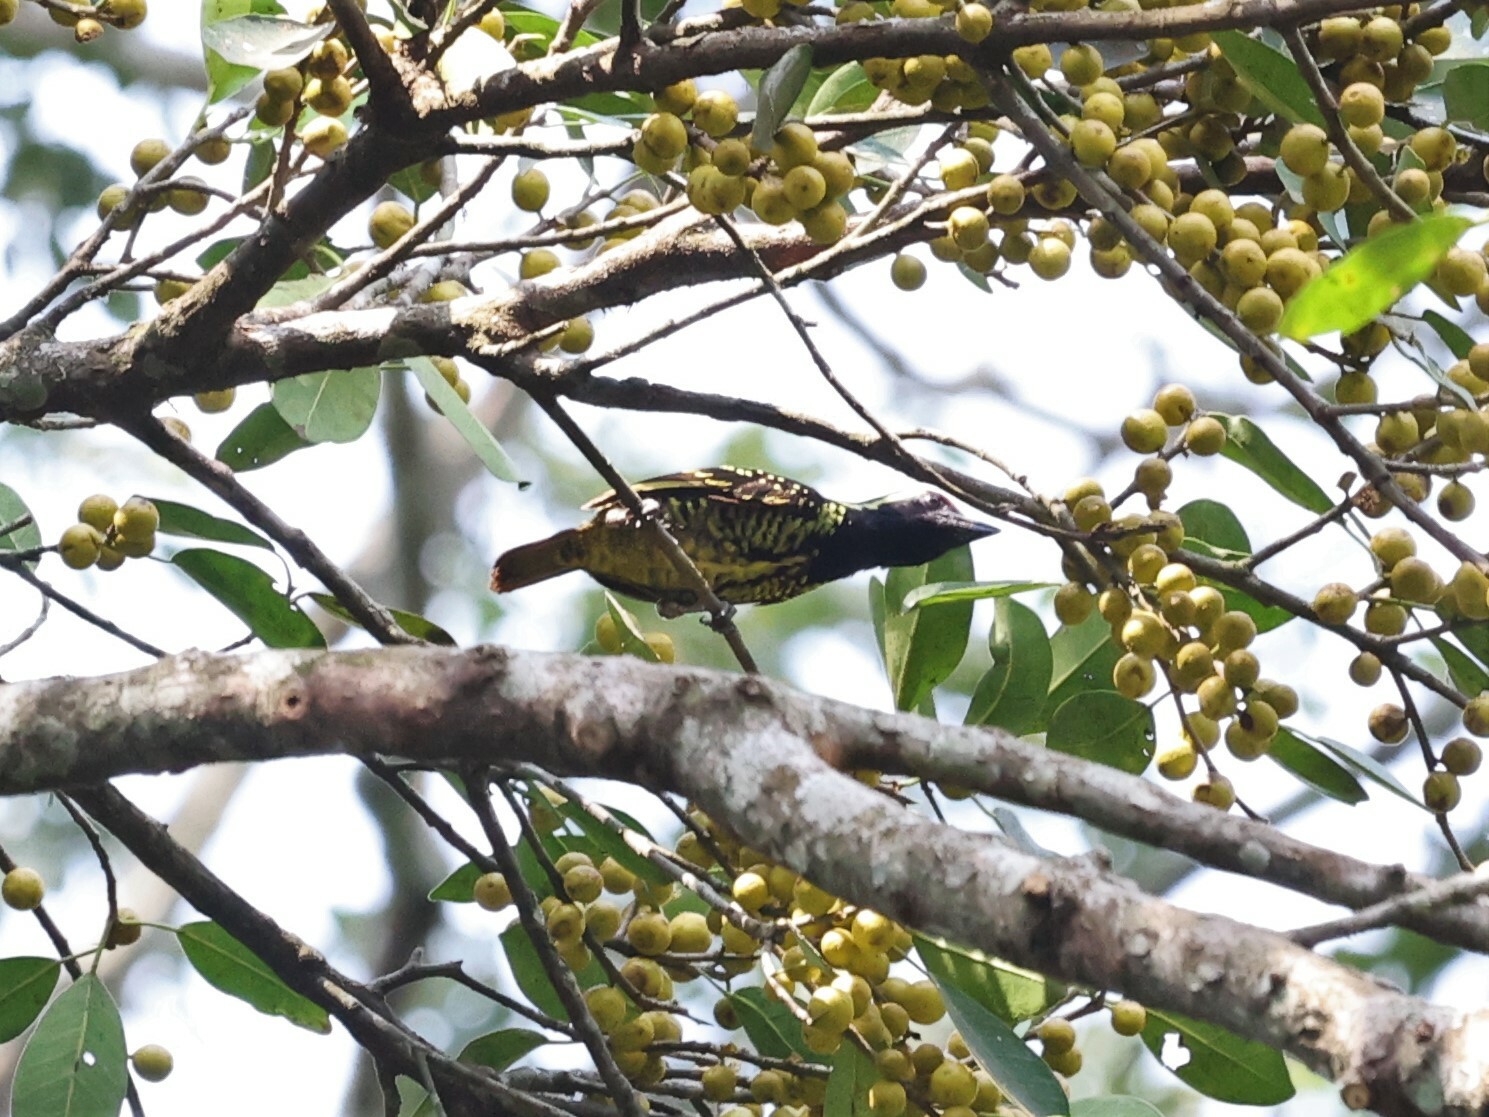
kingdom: Animalia
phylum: Chordata
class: Aves
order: Piciformes
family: Lybiidae
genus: Buccanodon
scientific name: Buccanodon duchaillui
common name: Yellow-spotted barbet
